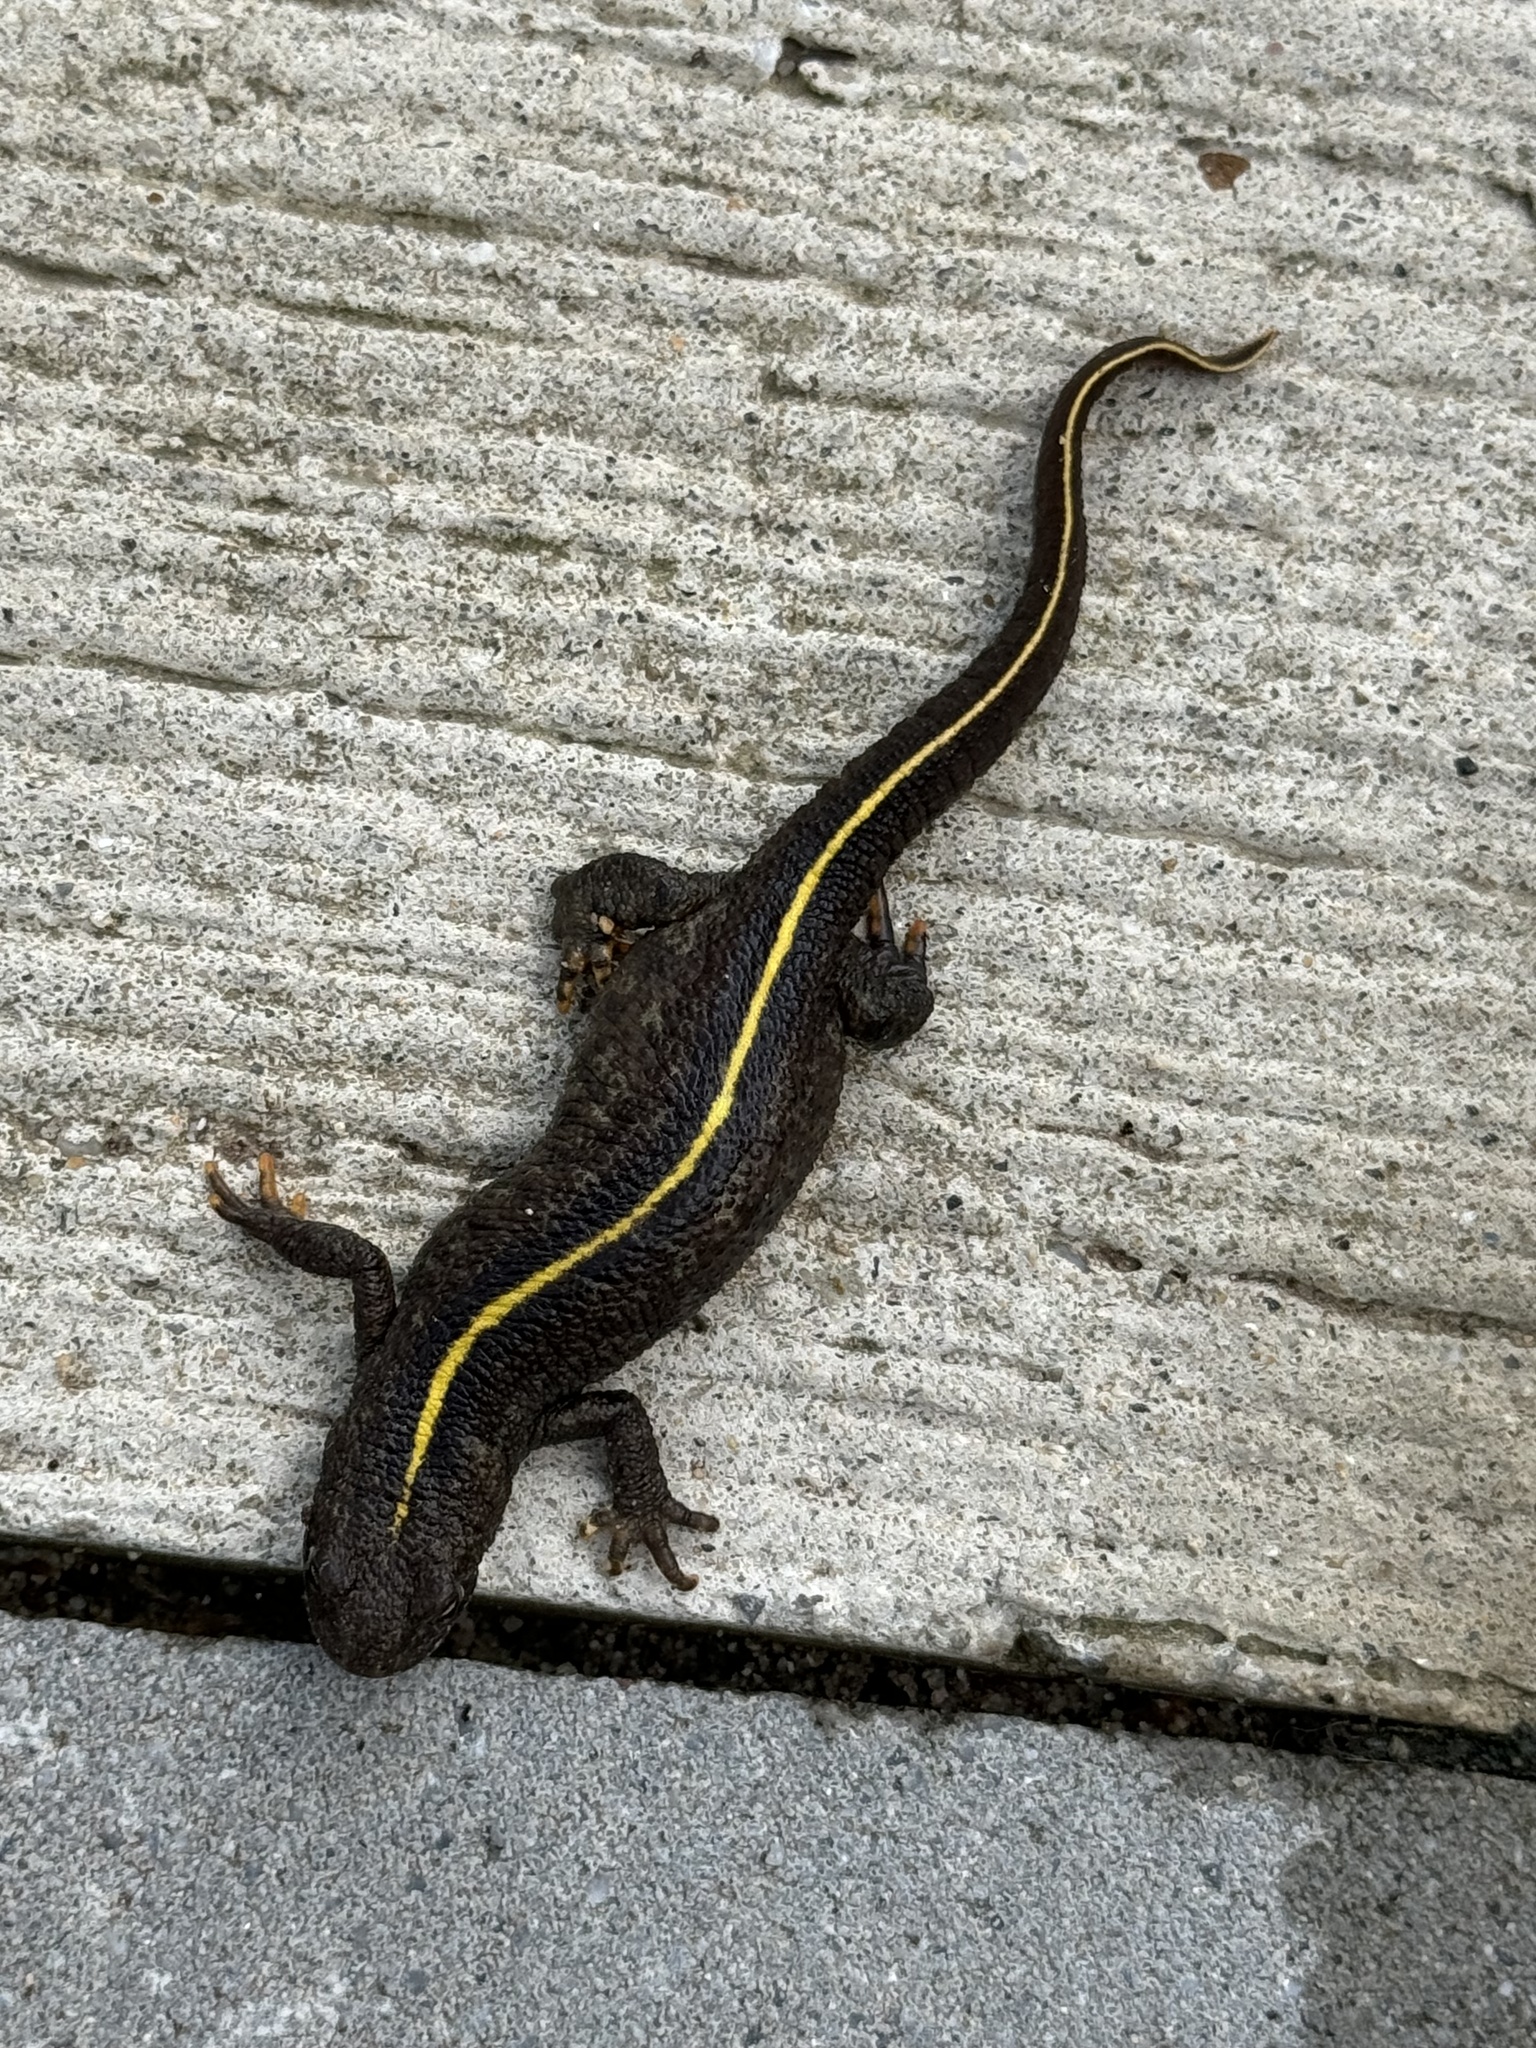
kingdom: Animalia
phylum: Chordata
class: Amphibia
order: Caudata
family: Salamandridae
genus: Triturus
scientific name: Triturus carnifex
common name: Italian crested newt
